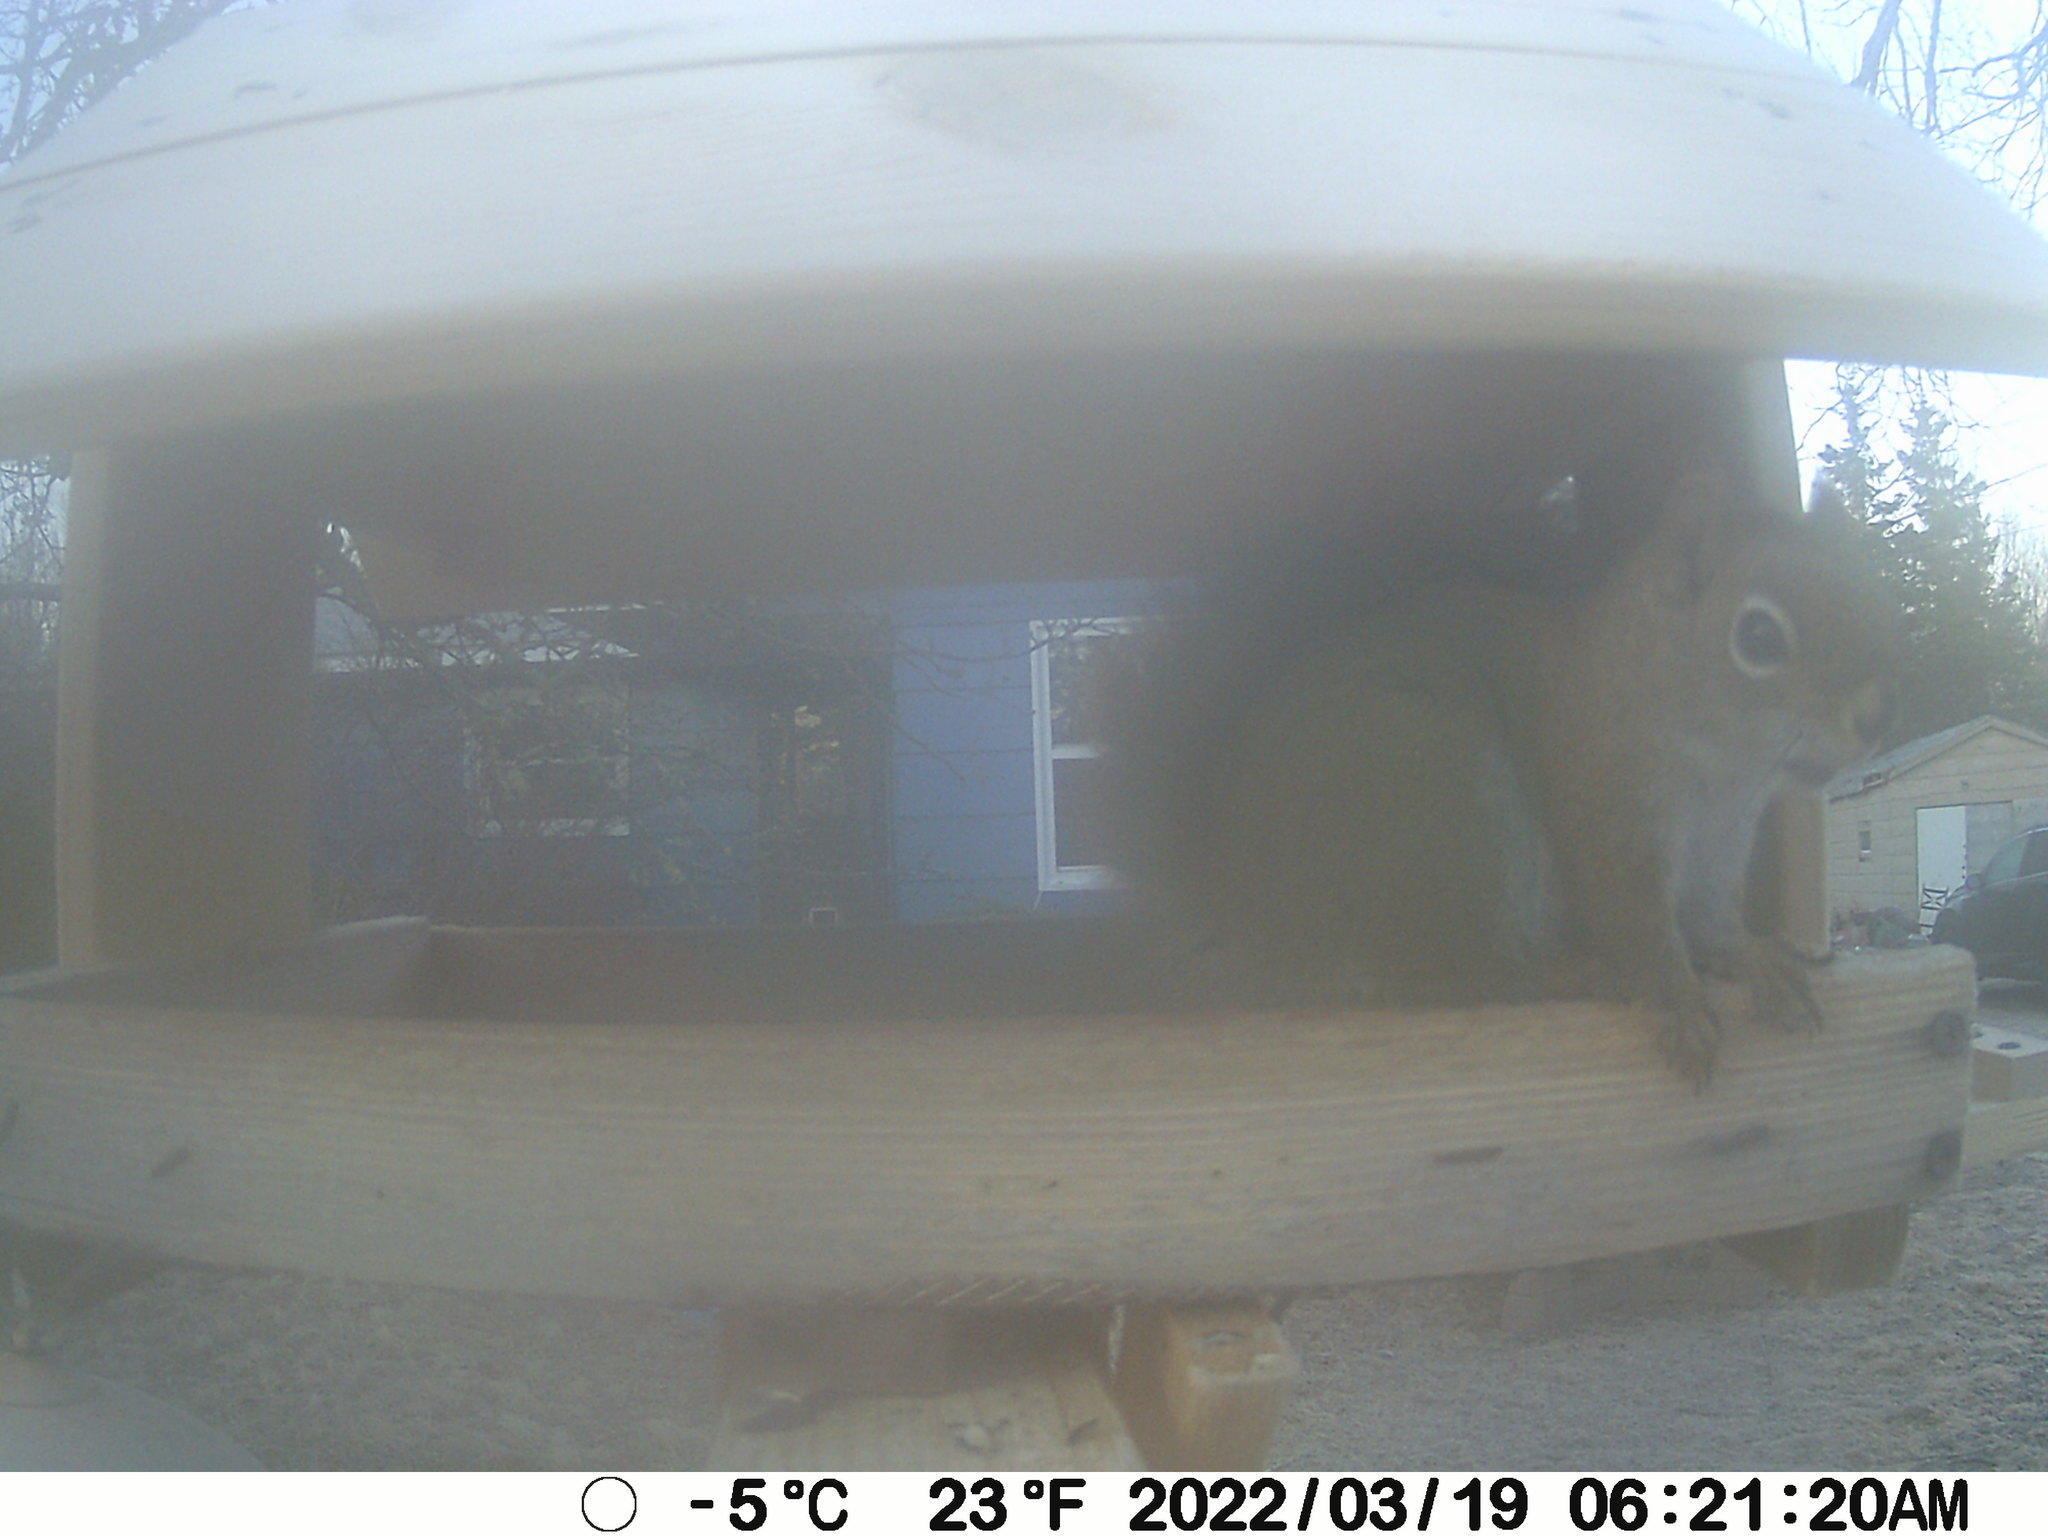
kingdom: Animalia
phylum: Chordata
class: Mammalia
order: Rodentia
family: Sciuridae
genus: Tamiasciurus
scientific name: Tamiasciurus hudsonicus
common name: Red squirrel
